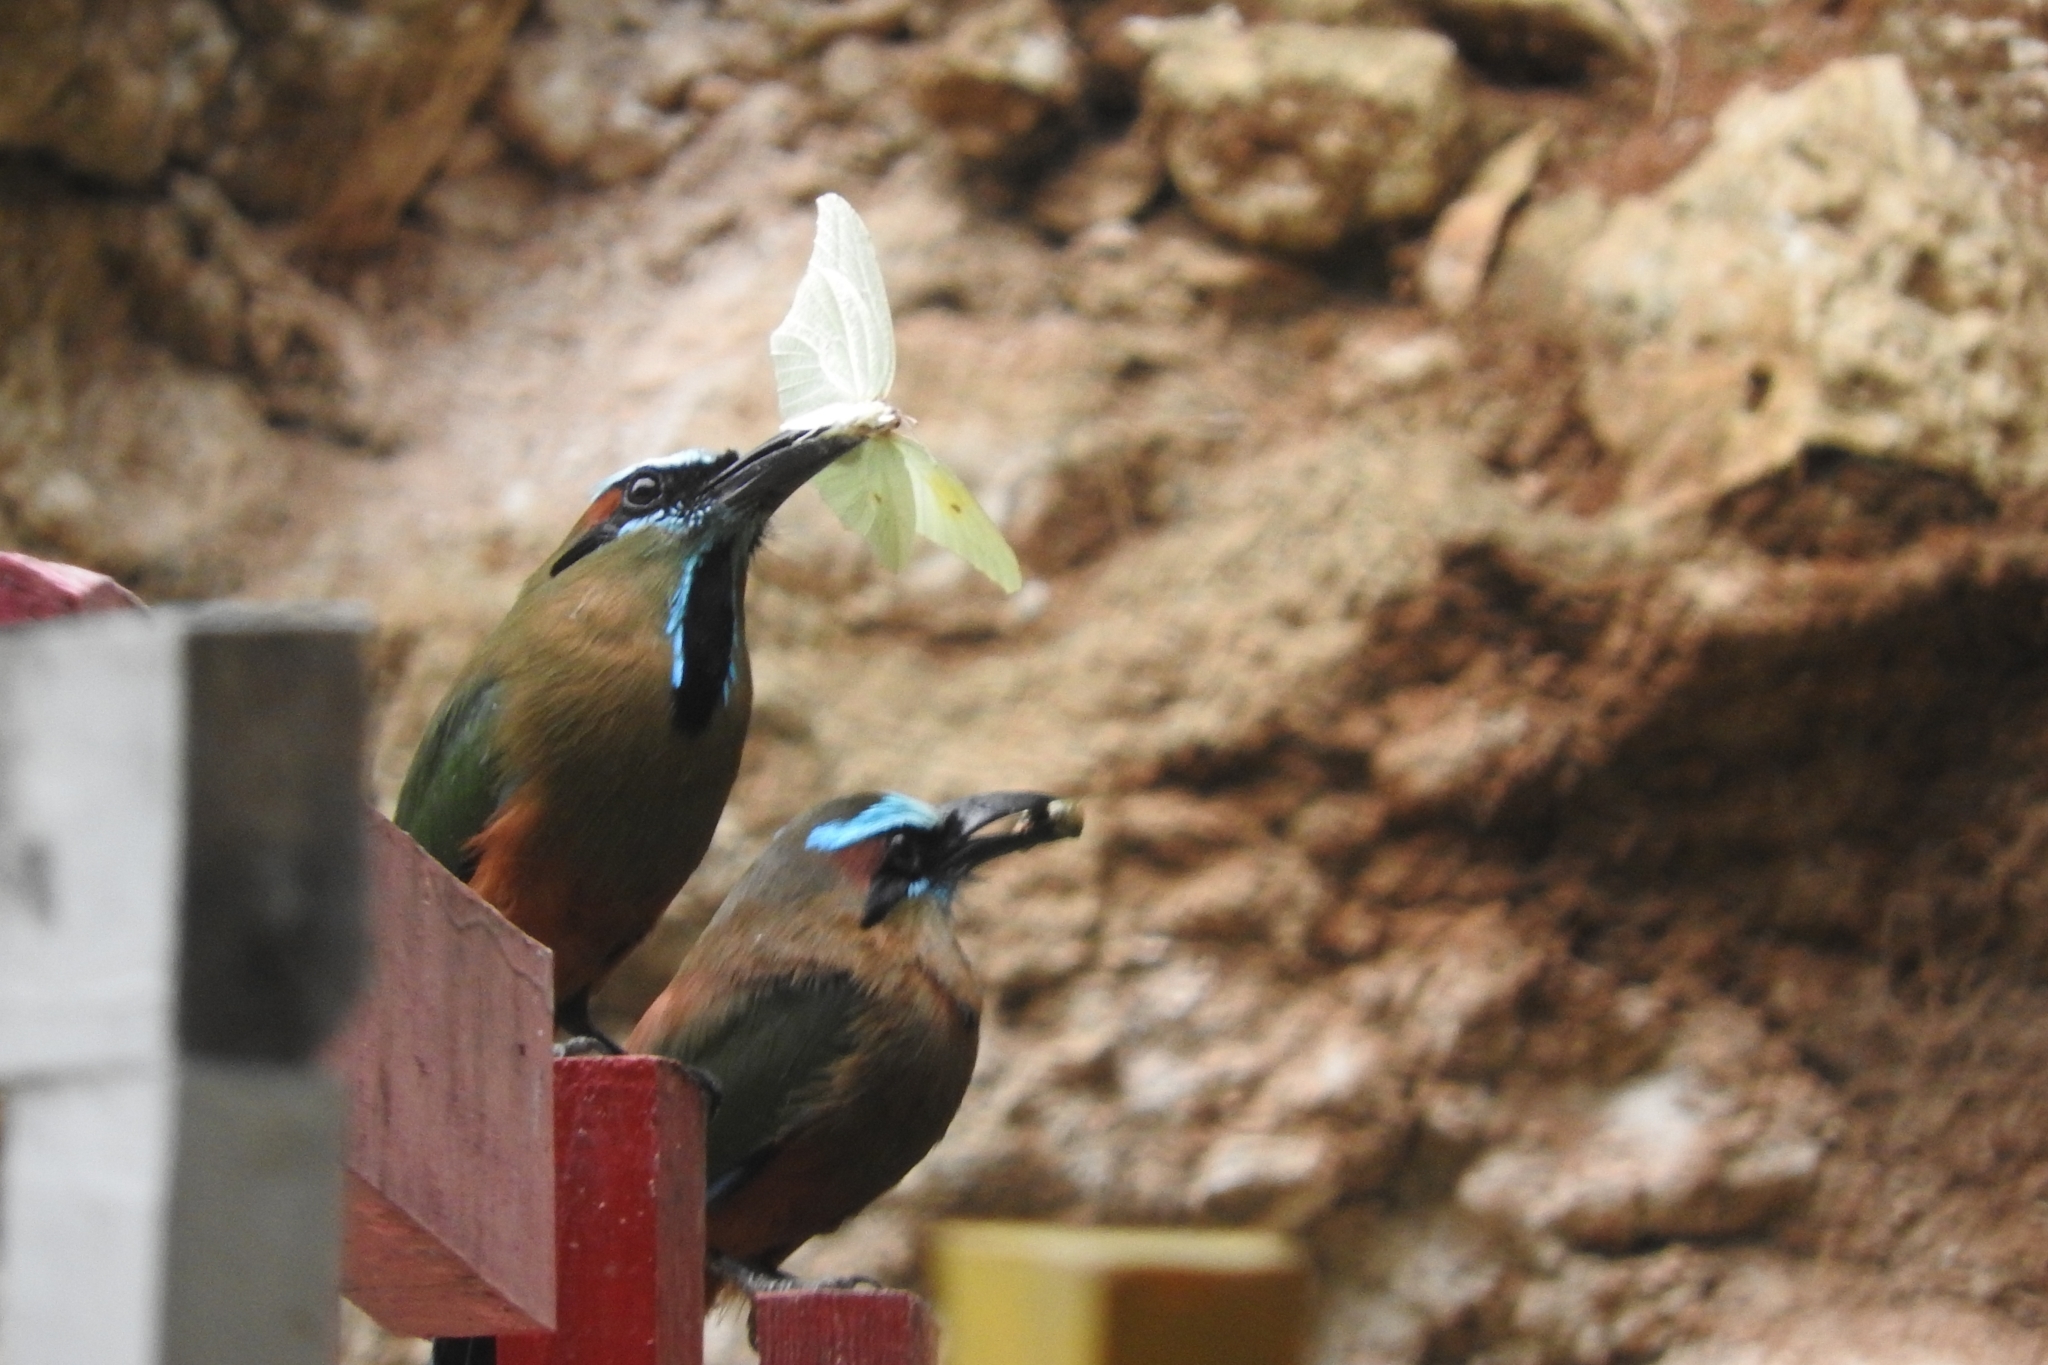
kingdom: Animalia
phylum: Chordata
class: Aves
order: Coraciiformes
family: Momotidae
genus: Eumomota
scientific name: Eumomota superciliosa
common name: Turquoise-browed motmot
